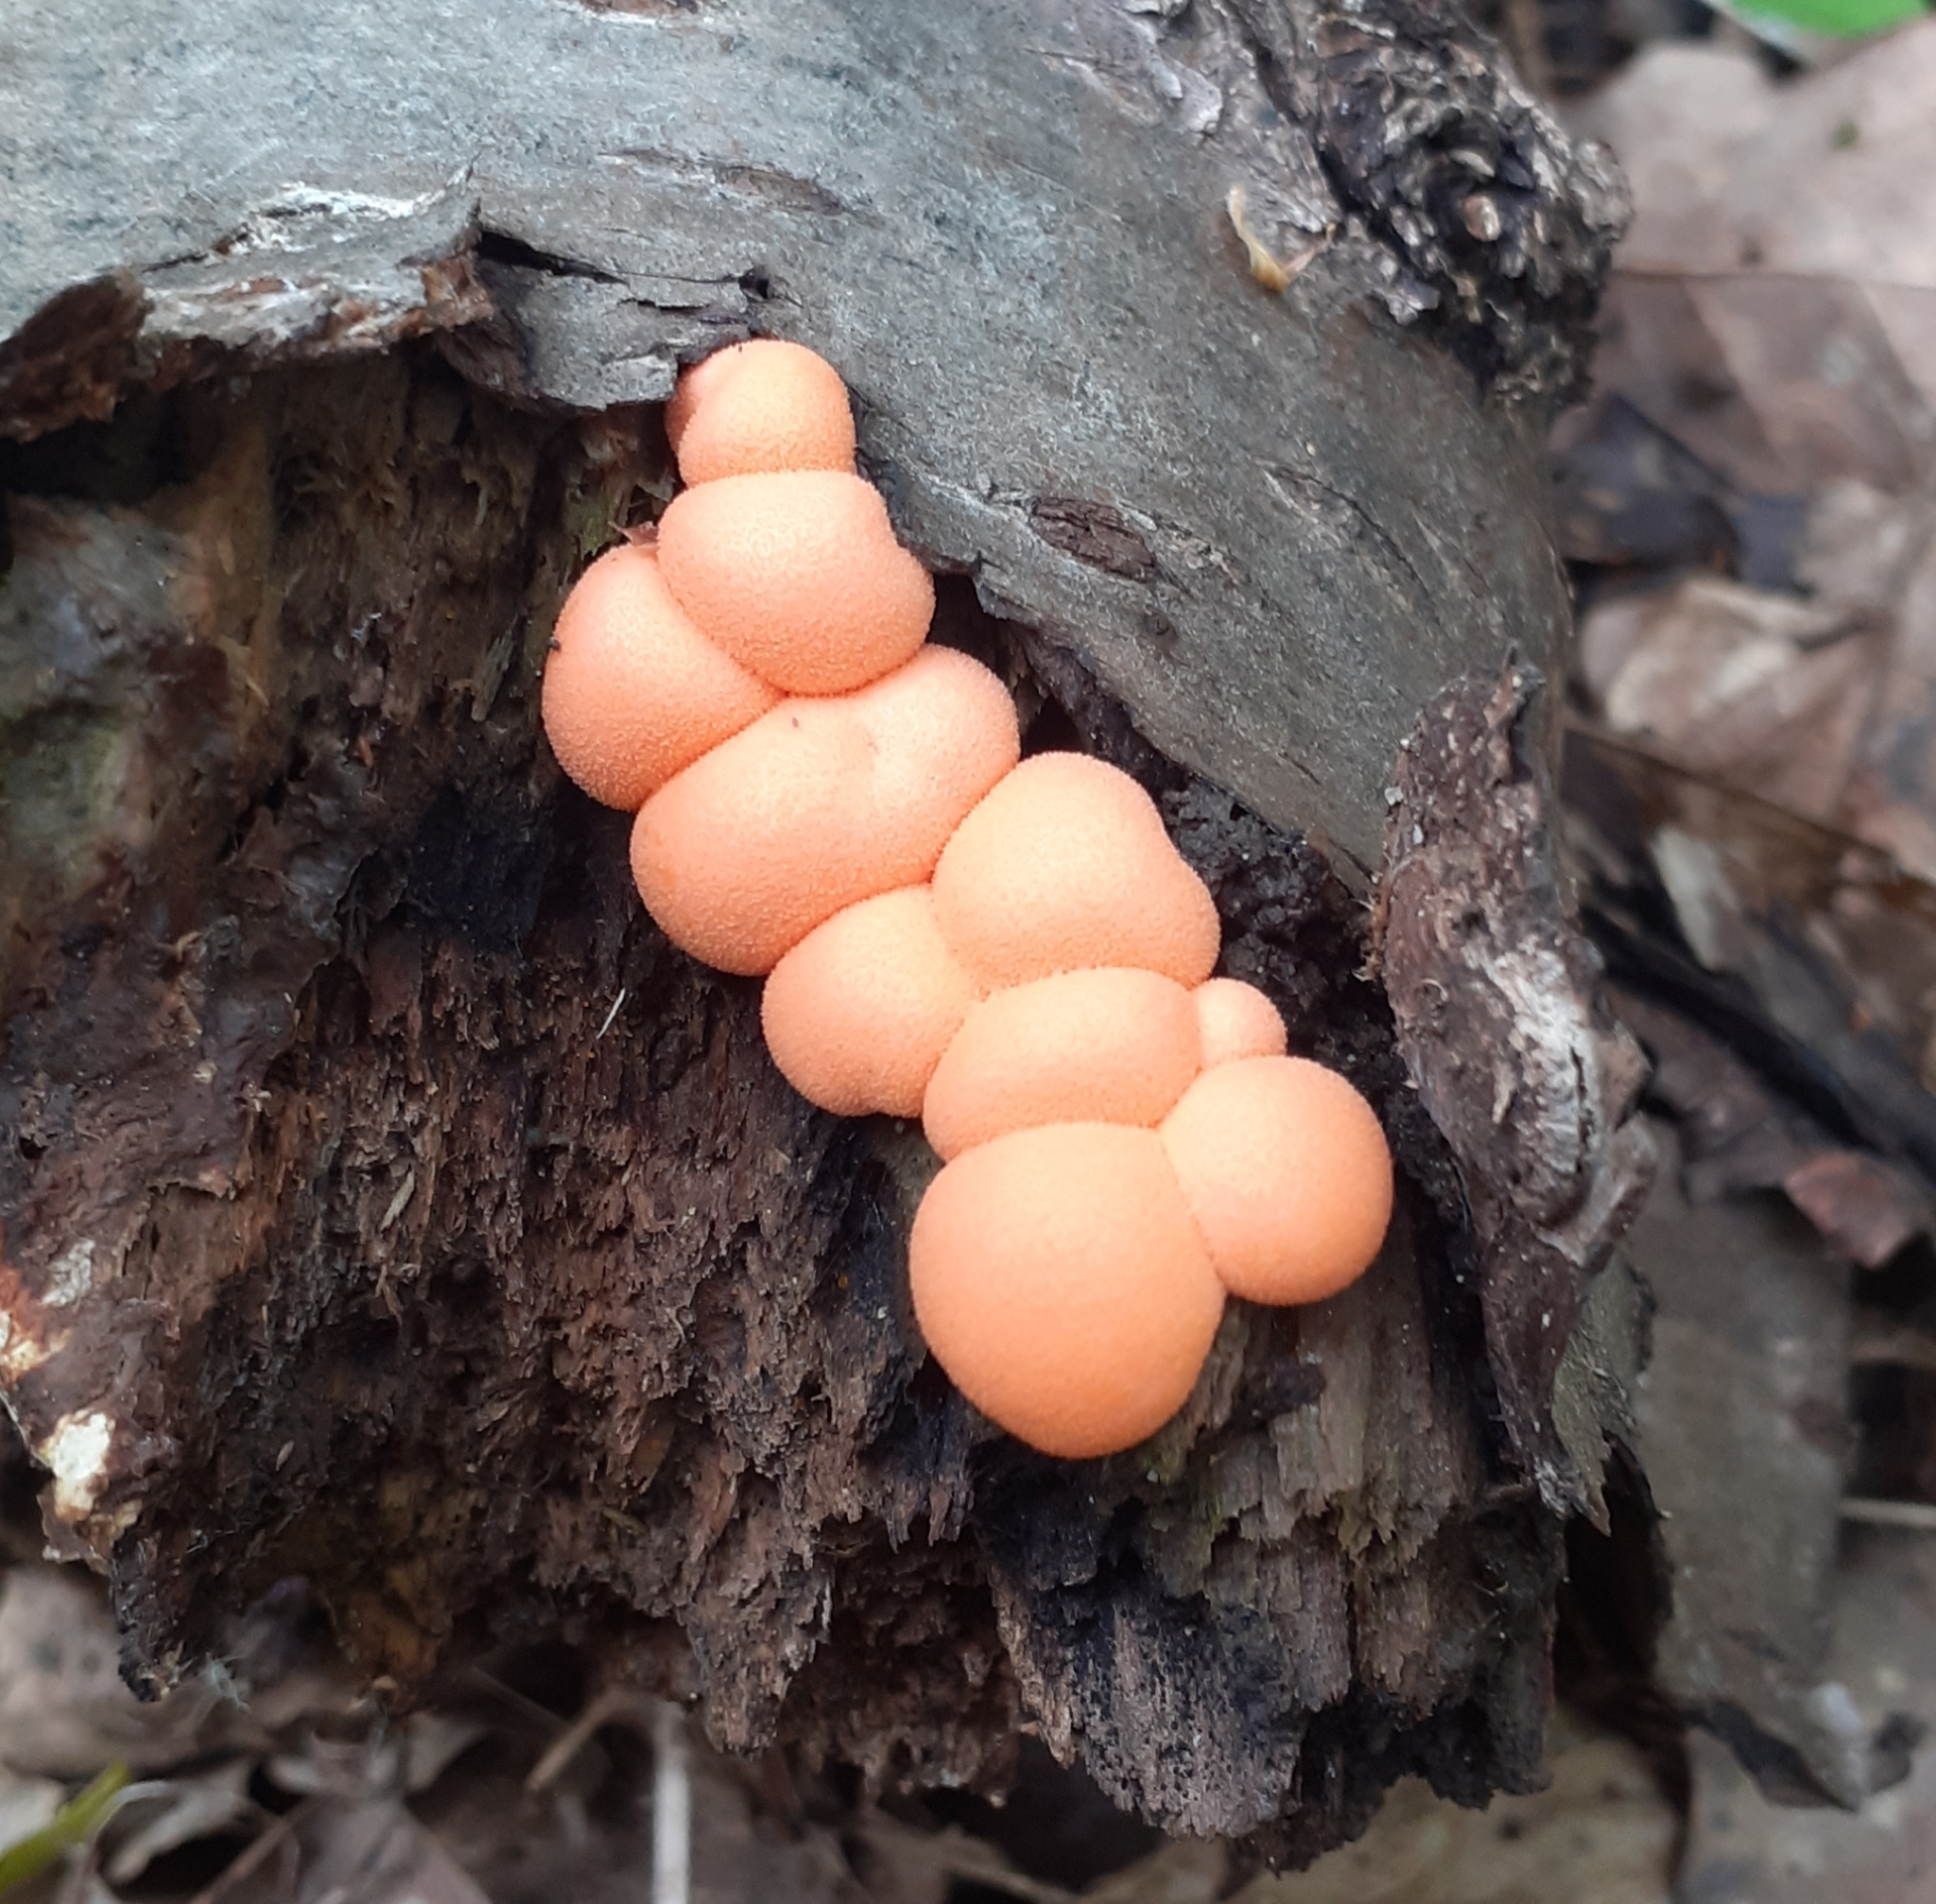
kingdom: Protozoa
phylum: Mycetozoa
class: Myxomycetes
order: Cribrariales
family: Tubiferaceae
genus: Lycogala
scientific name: Lycogala epidendrum
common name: Wolf's milk
